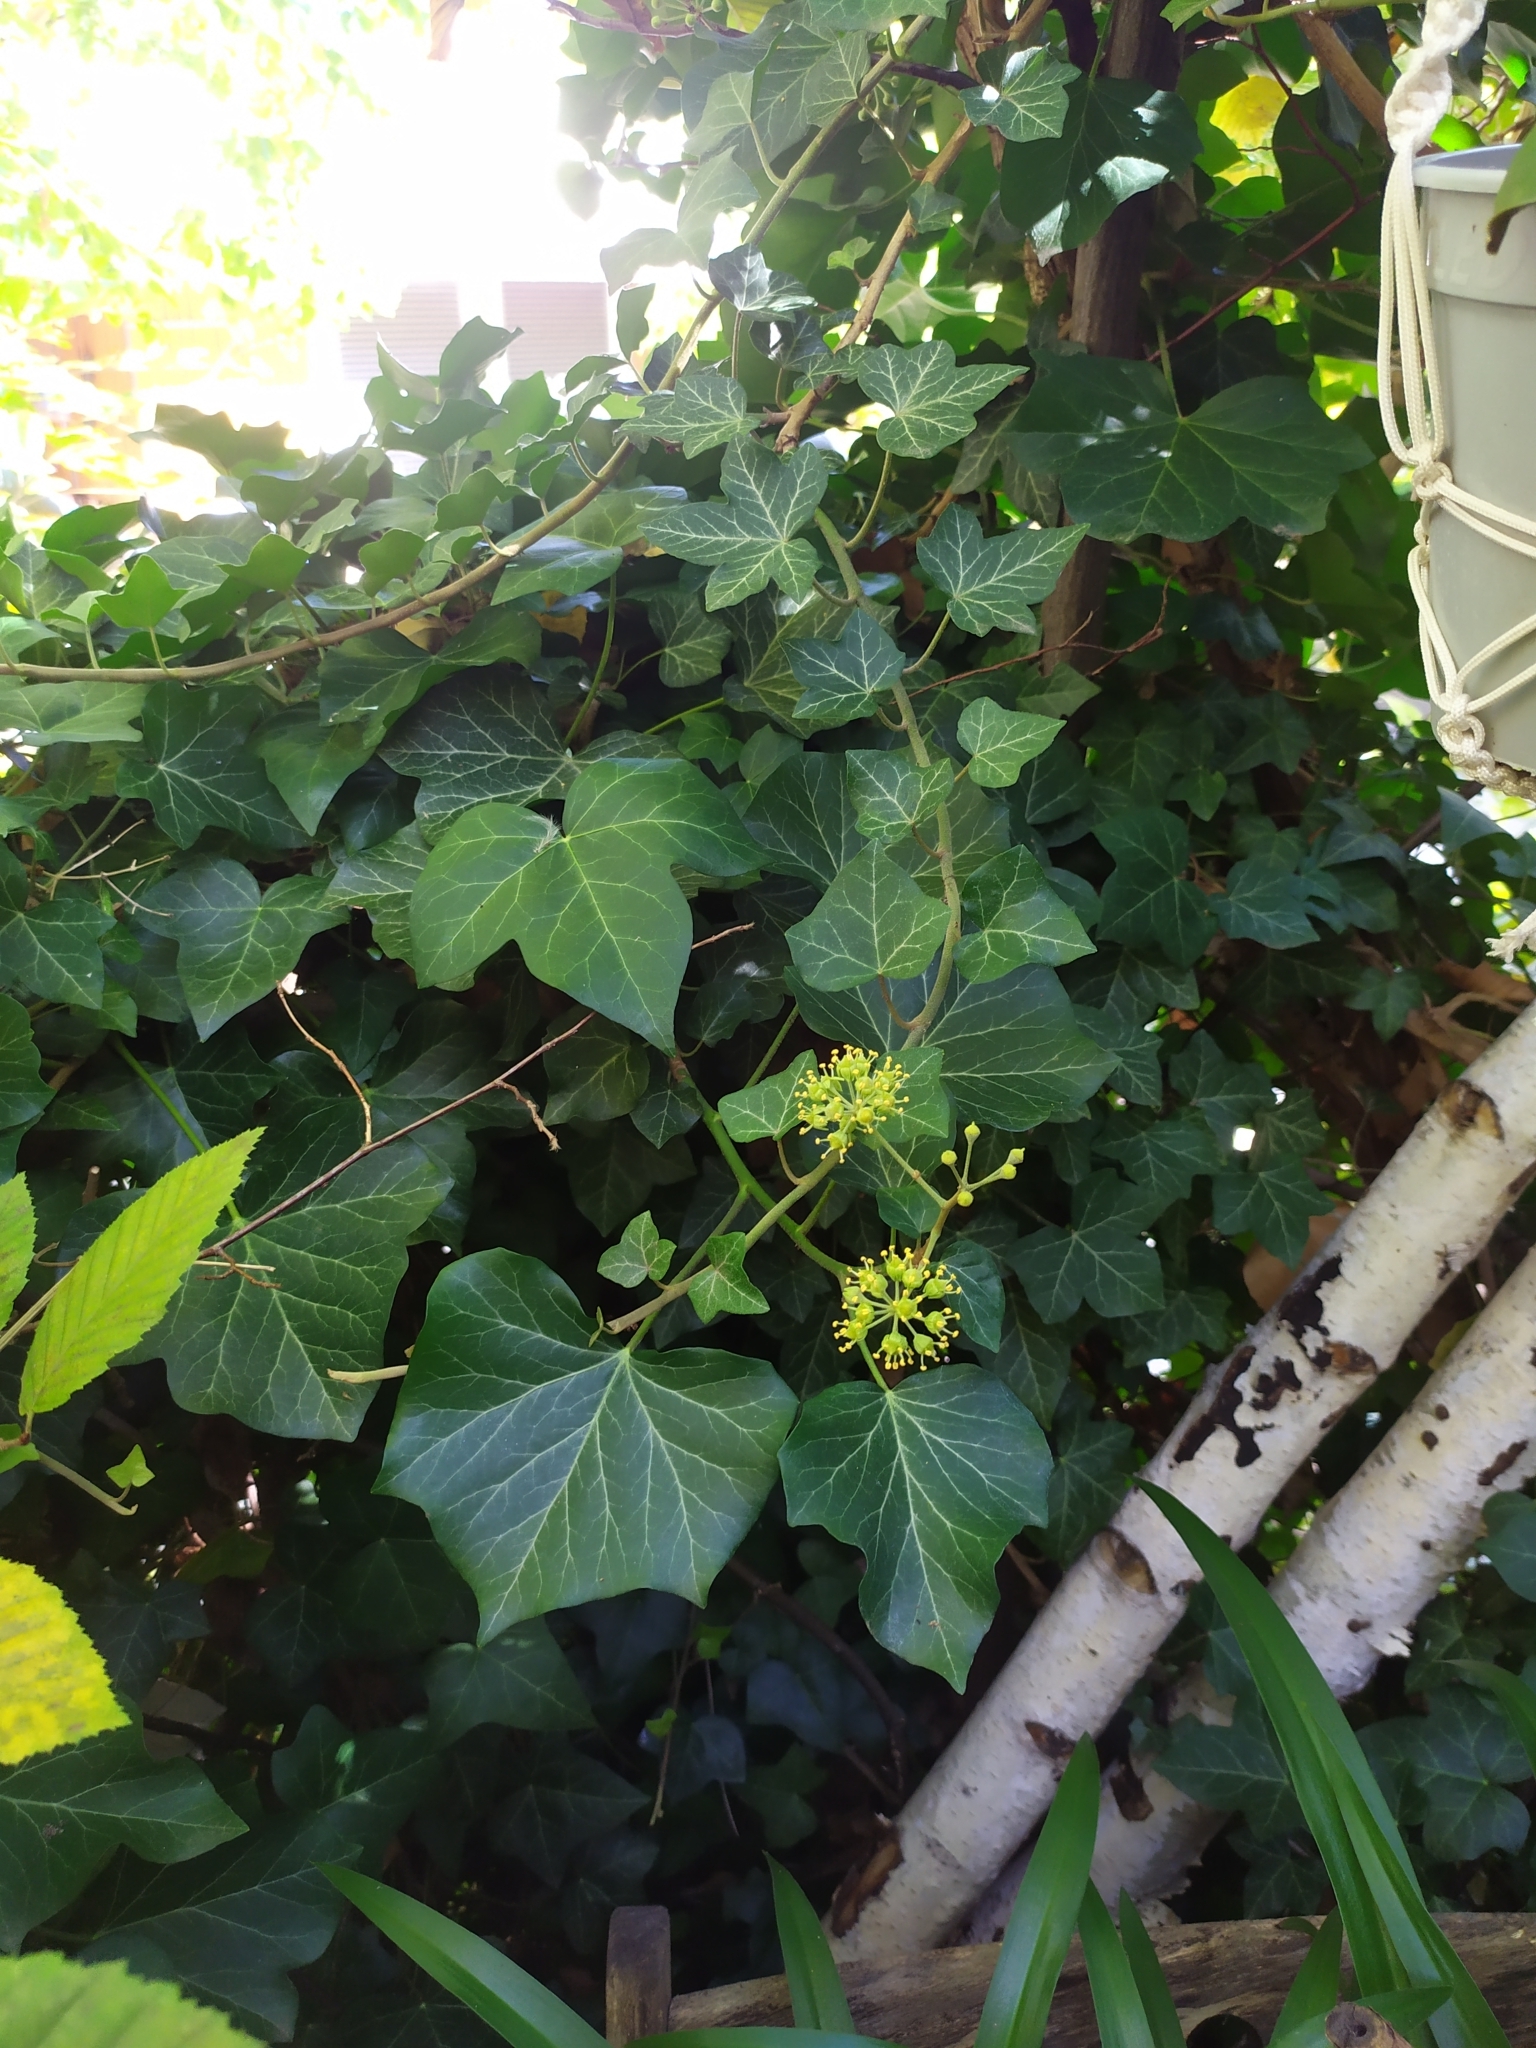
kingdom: Plantae
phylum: Tracheophyta
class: Magnoliopsida
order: Apiales
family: Araliaceae
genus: Hedera
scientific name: Hedera helix
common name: Ivy
